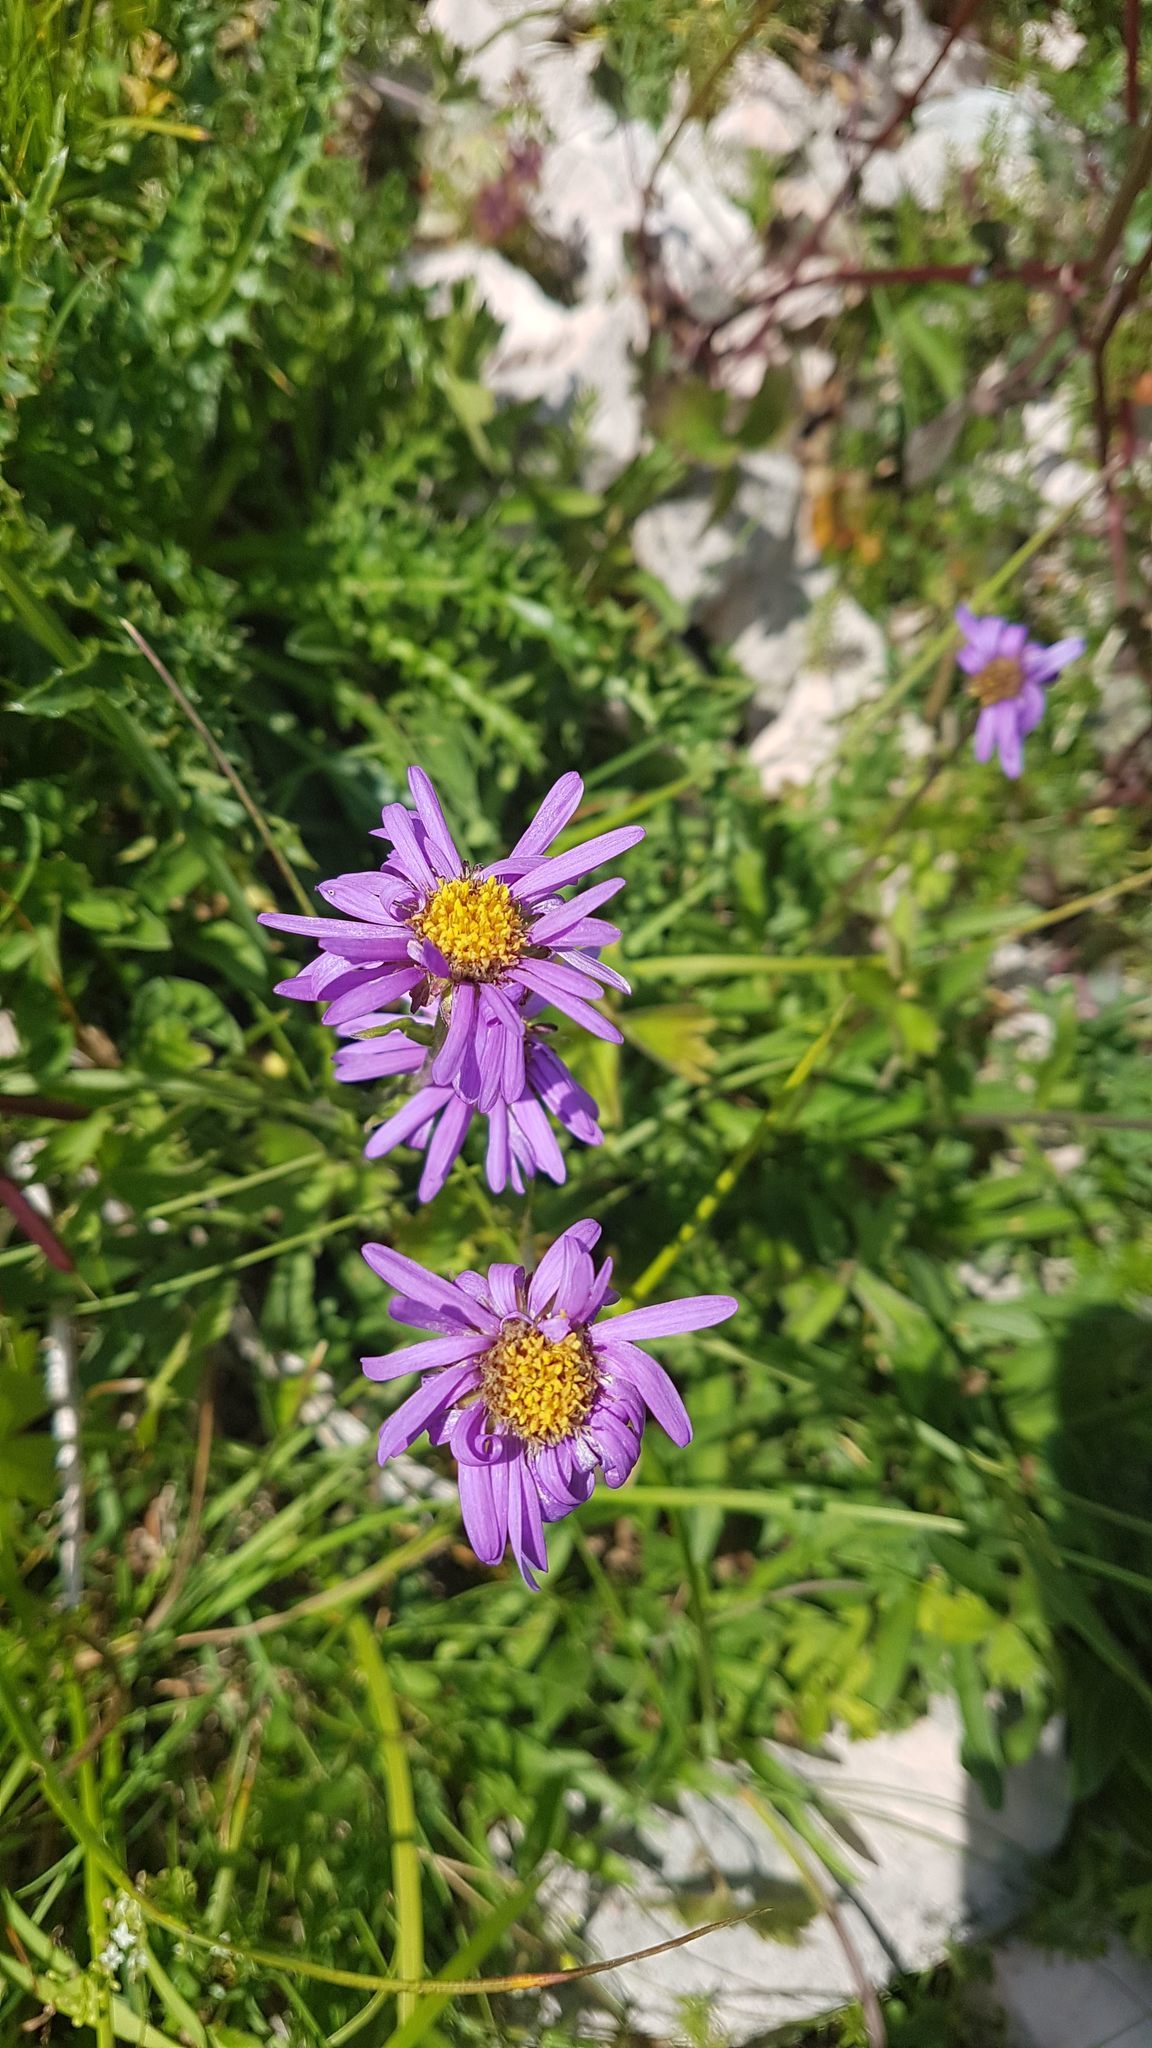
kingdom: Plantae
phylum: Tracheophyta
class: Magnoliopsida
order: Asterales
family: Asteraceae
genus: Aster
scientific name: Aster alpinus
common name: Alpine aster
